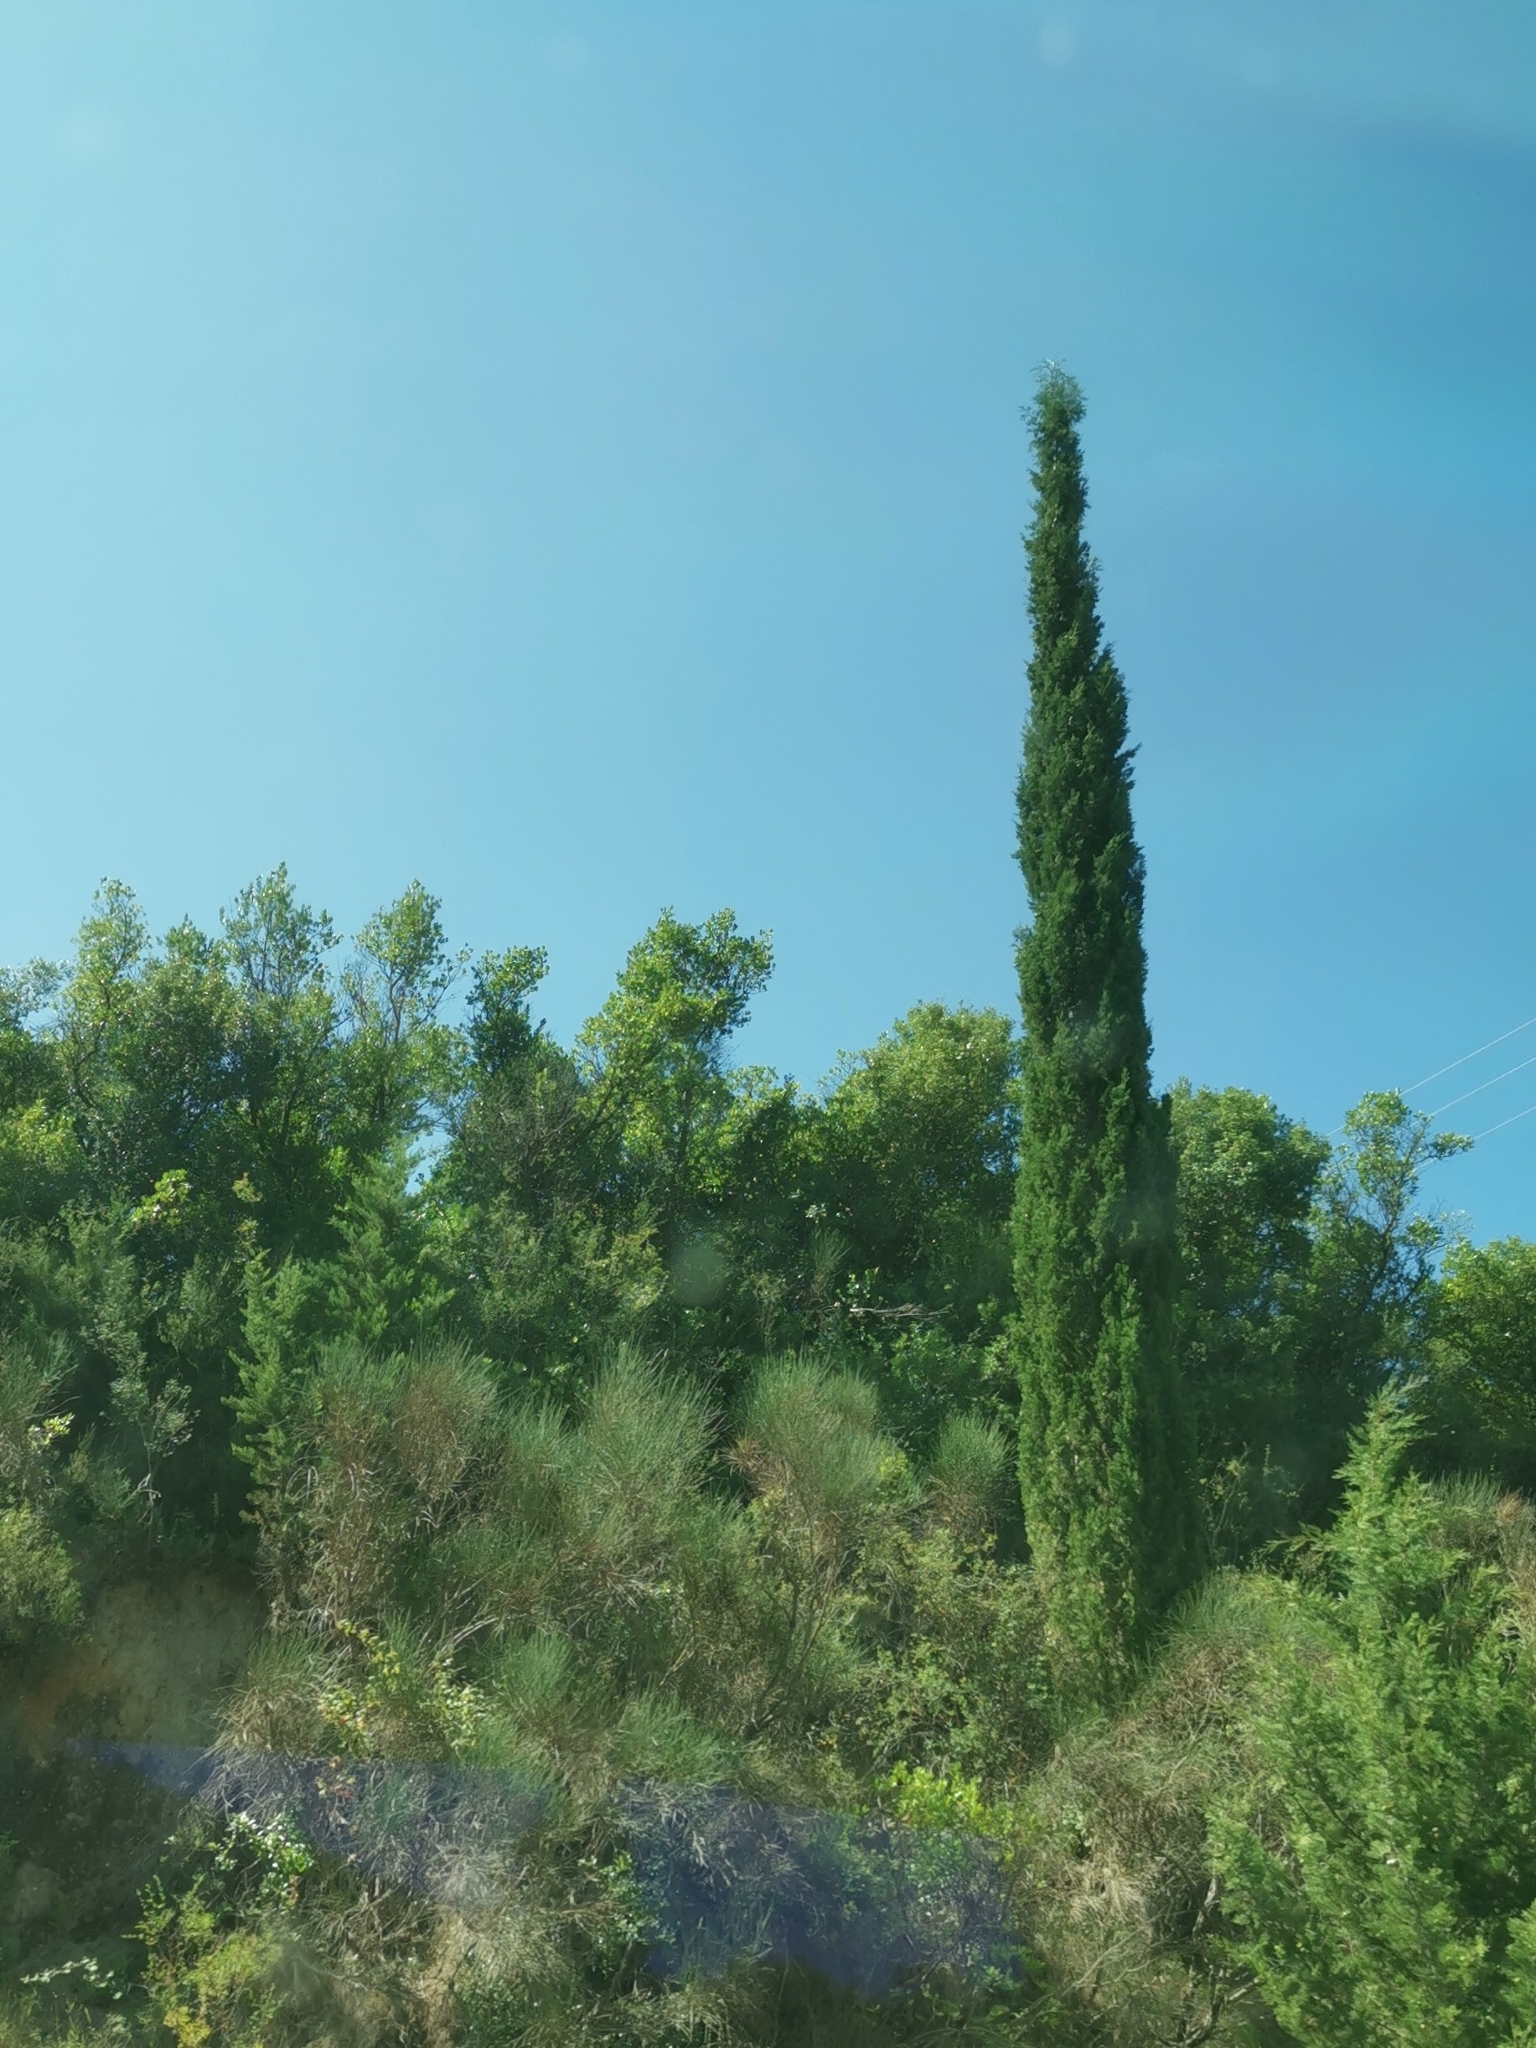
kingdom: Plantae
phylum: Tracheophyta
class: Pinopsida
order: Pinales
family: Cupressaceae
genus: Cupressus
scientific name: Cupressus sempervirens
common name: Italian cypress
